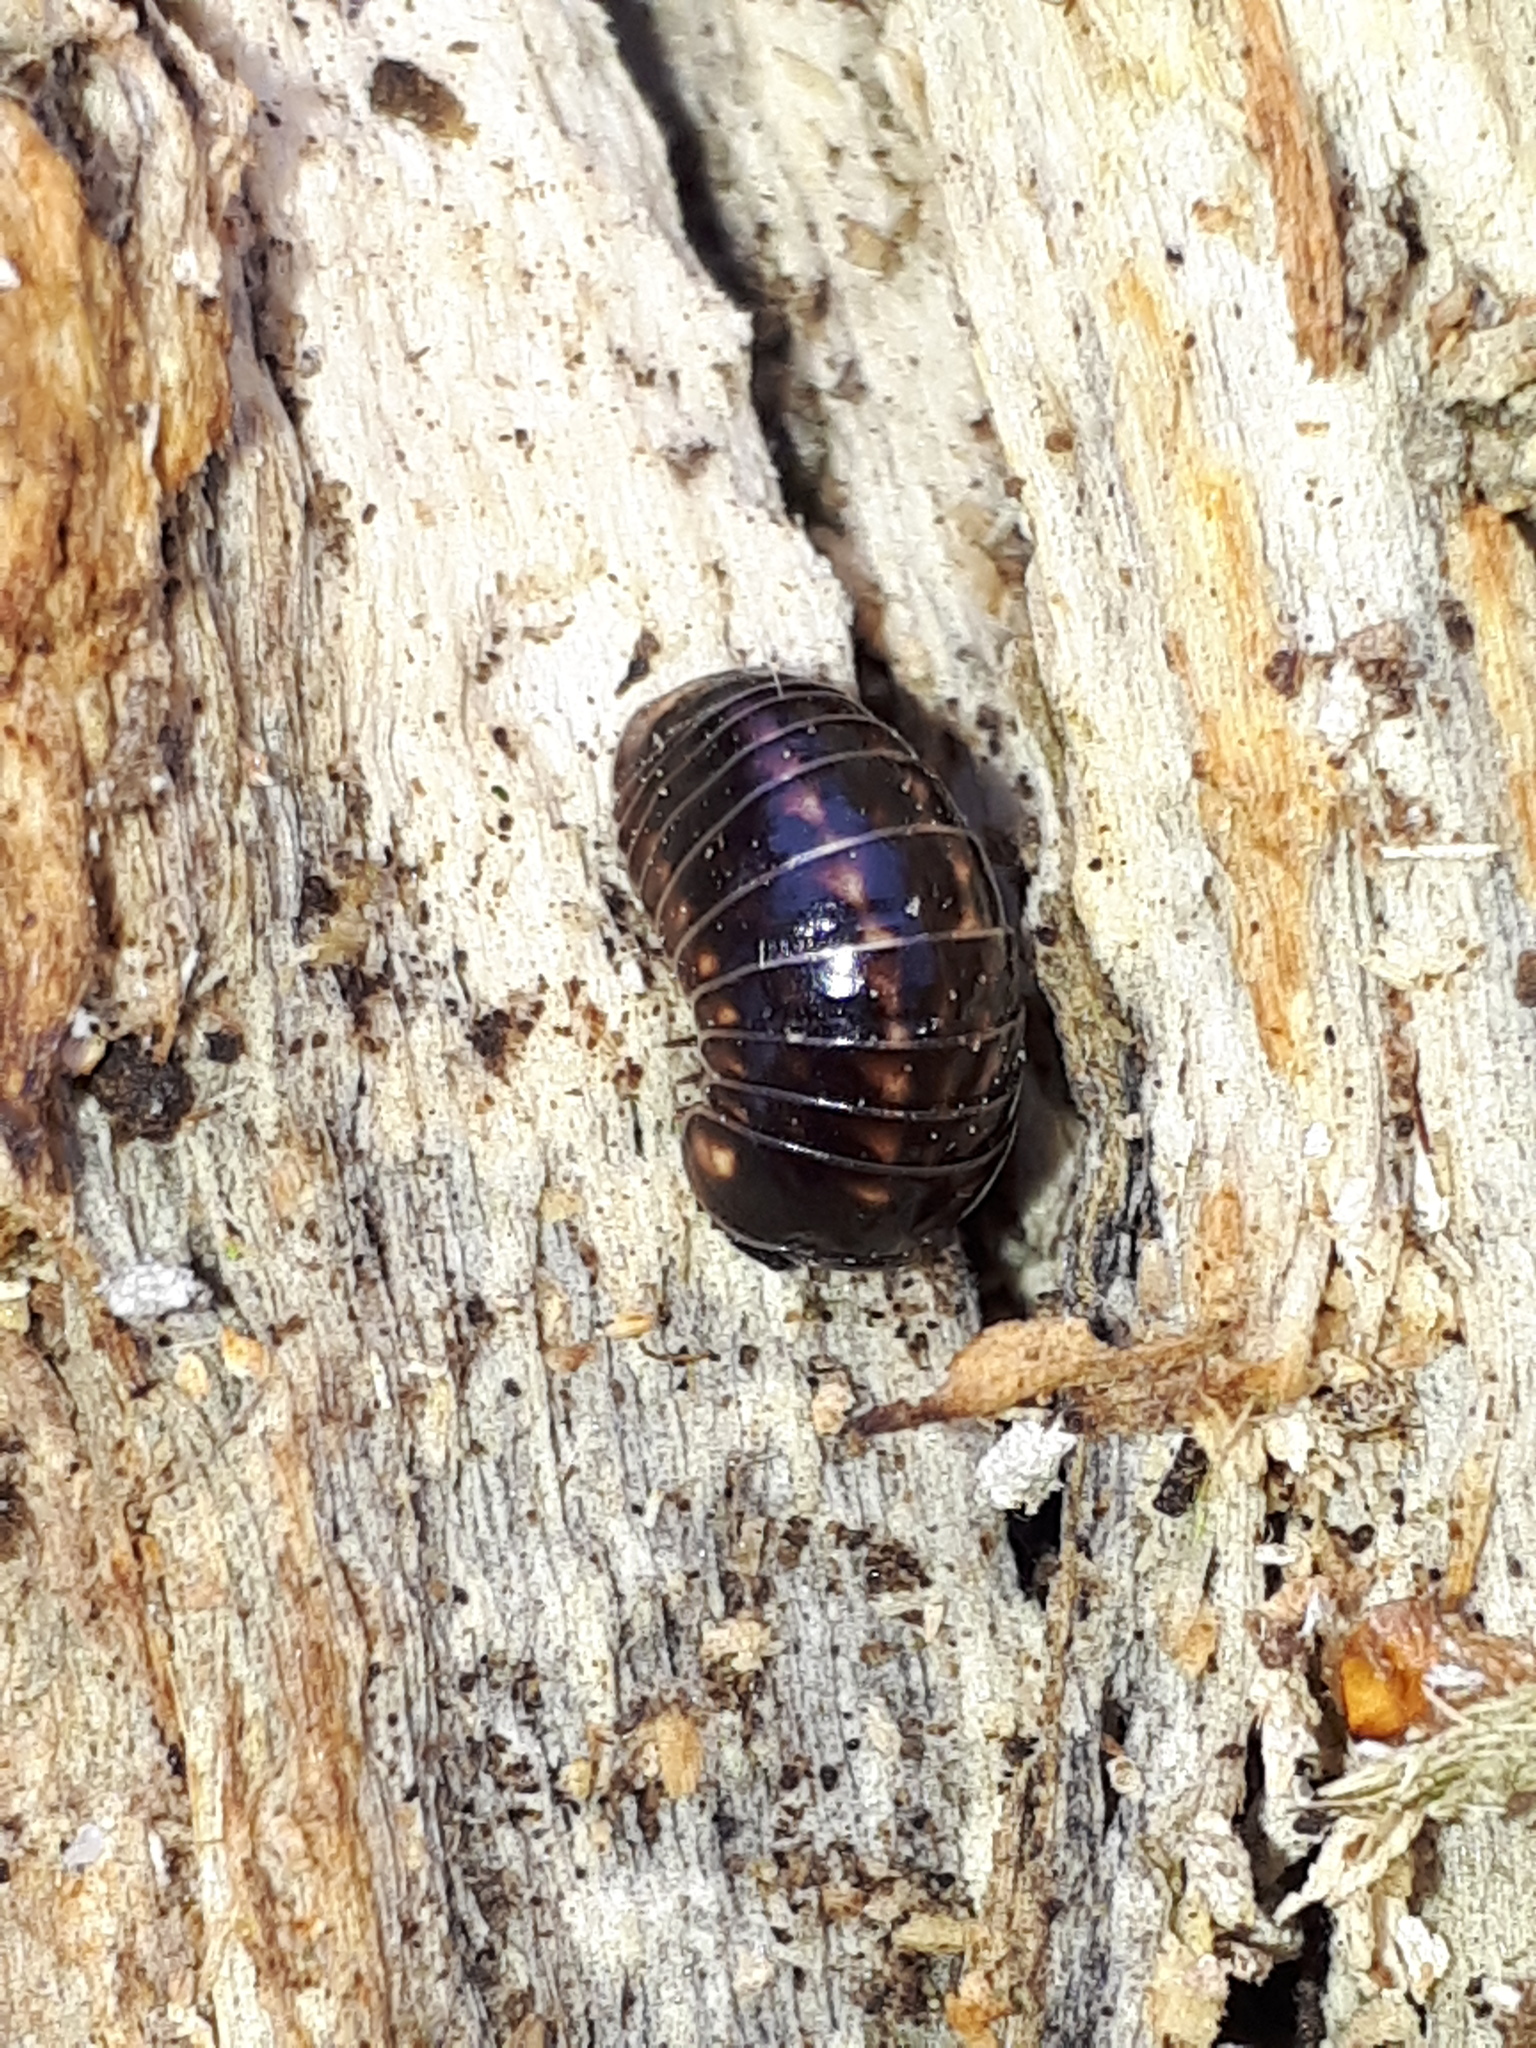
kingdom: Animalia
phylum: Arthropoda
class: Diplopoda
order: Glomerida
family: Glomeridae
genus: Glomeris
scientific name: Glomeris hexasticha
